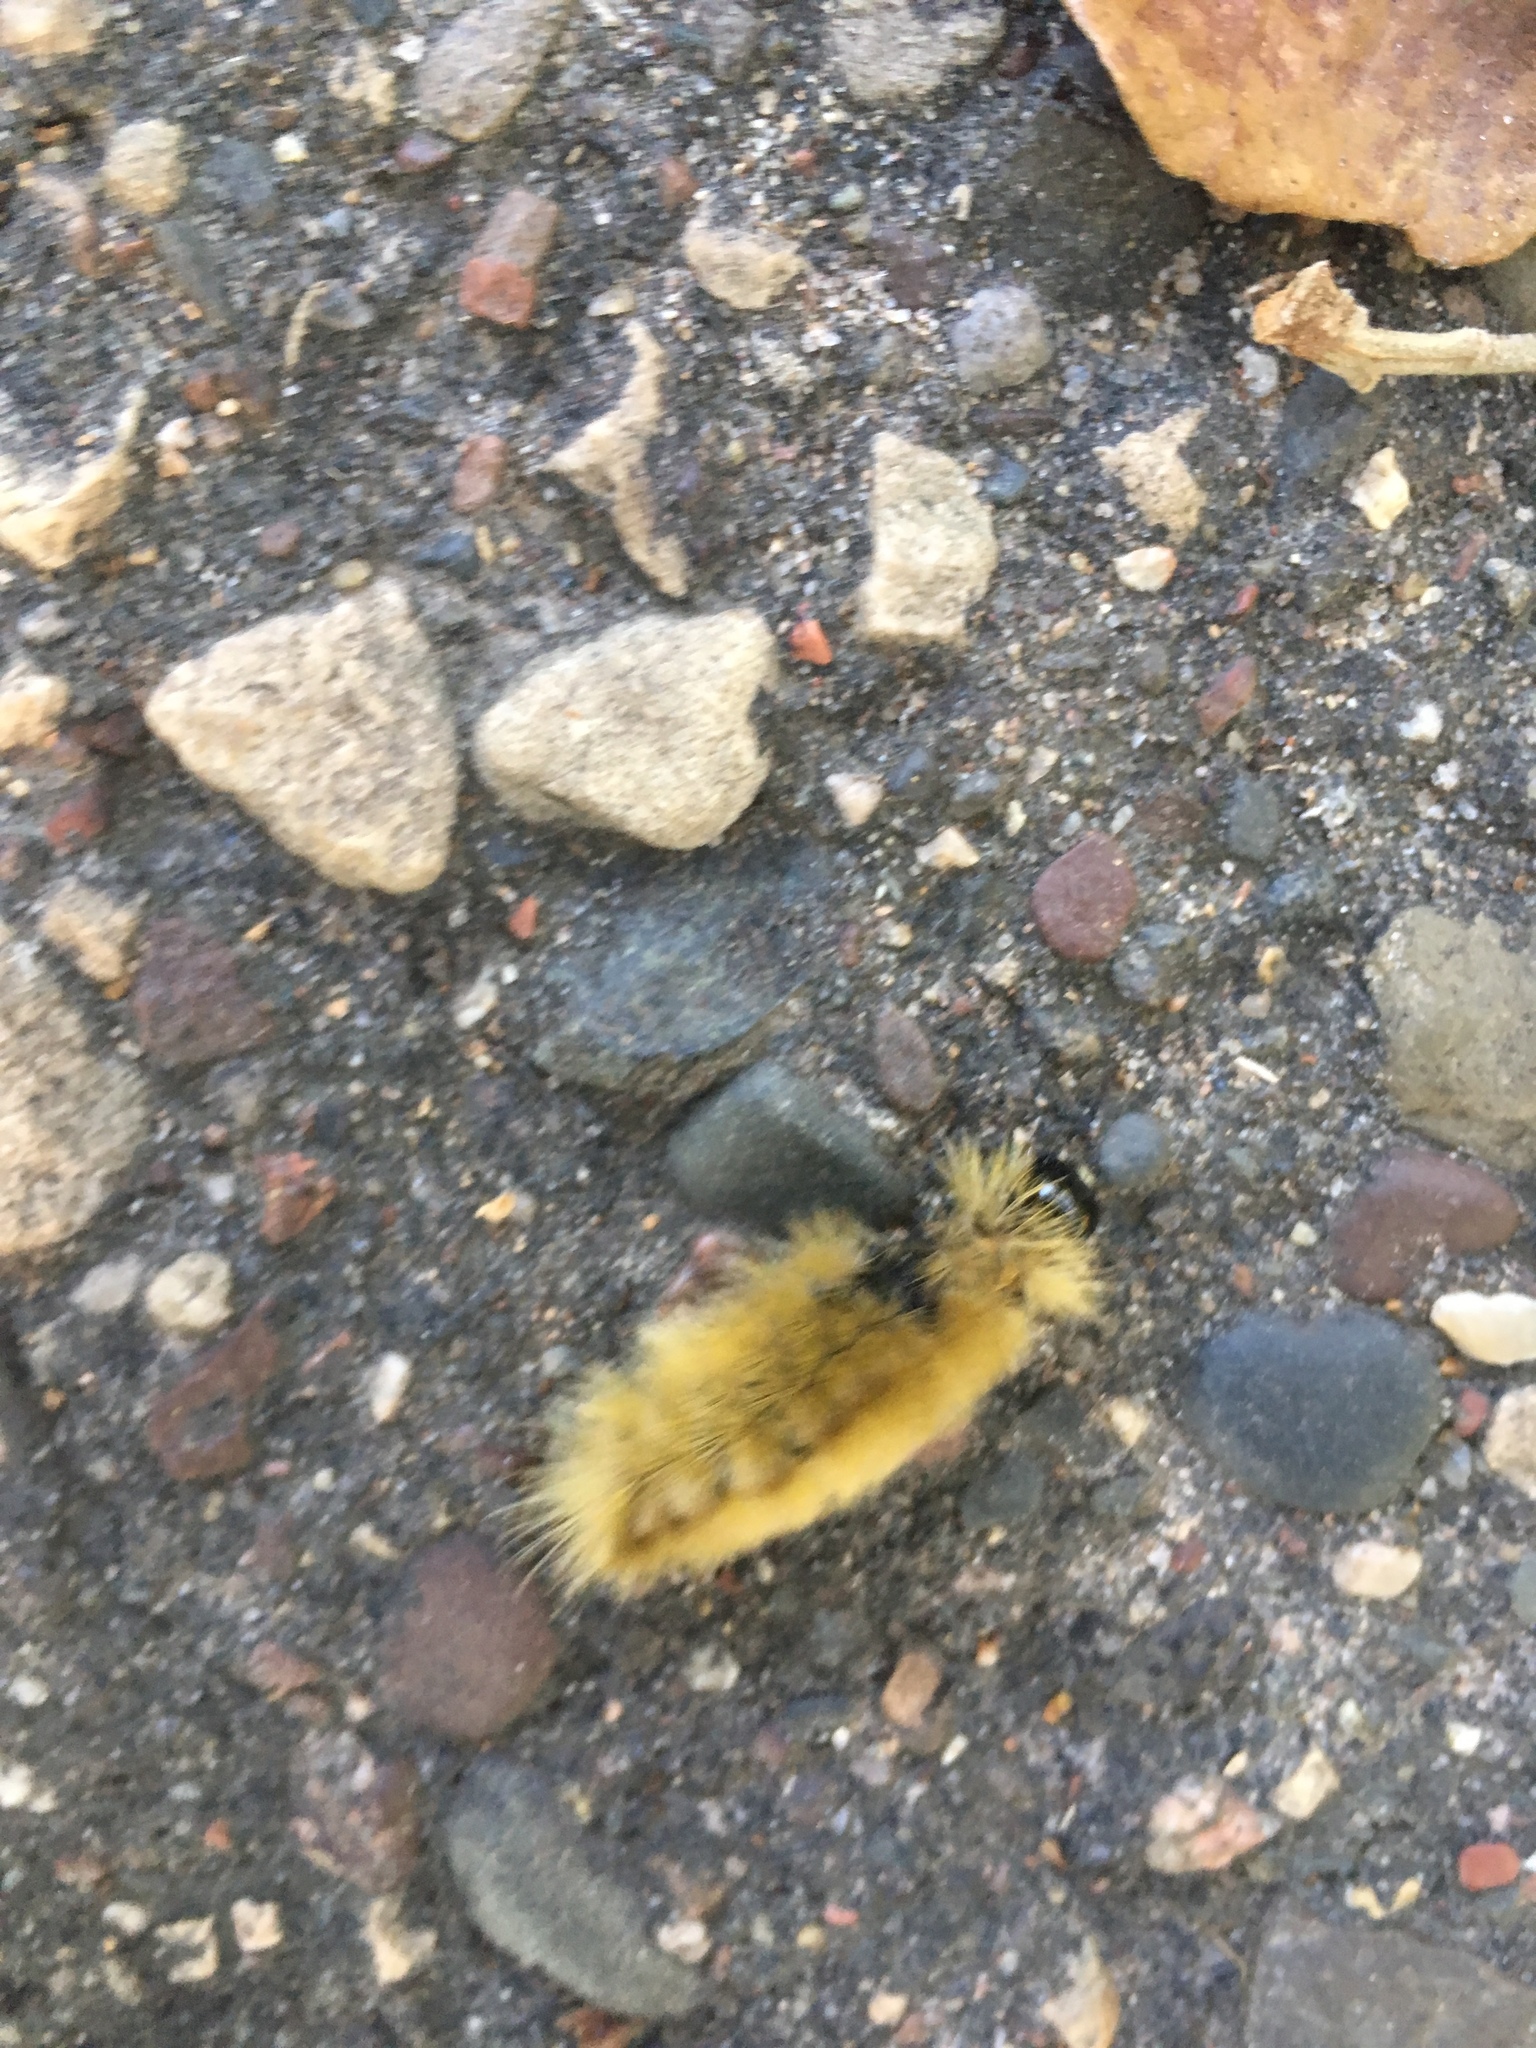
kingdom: Animalia
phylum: Arthropoda
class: Insecta
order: Lepidoptera
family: Erebidae
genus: Halysidota
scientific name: Halysidota tessellaris
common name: Banded tussock moth
